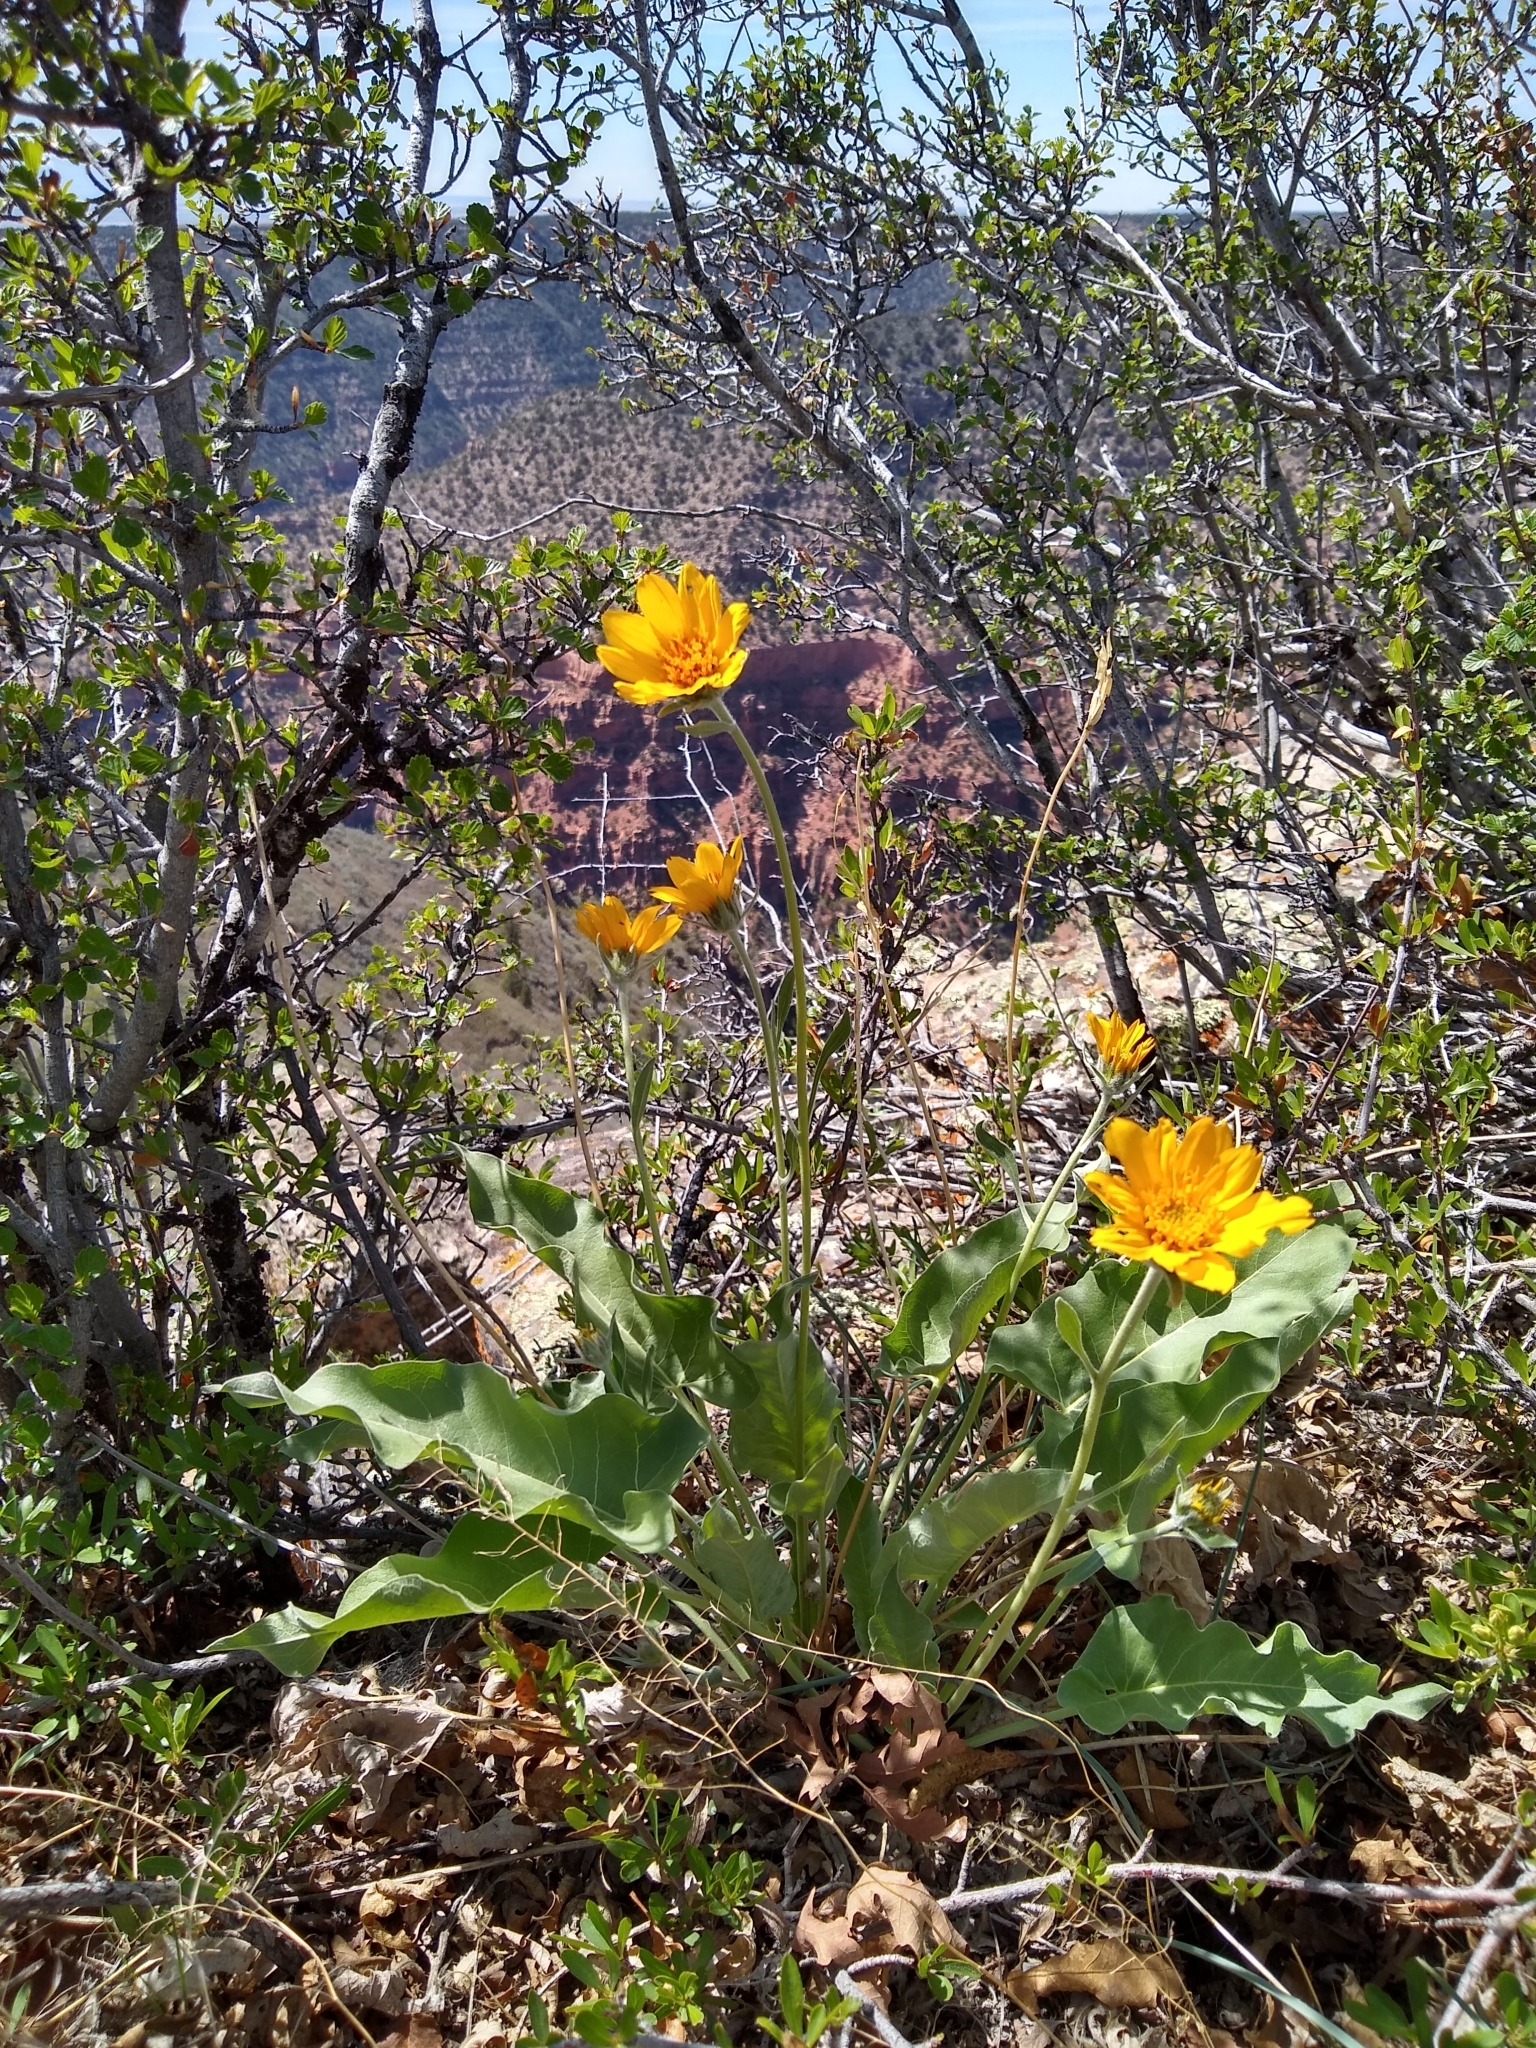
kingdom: Plantae
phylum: Tracheophyta
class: Magnoliopsida
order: Asterales
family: Asteraceae
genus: Wyethia
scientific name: Wyethia sagittata
